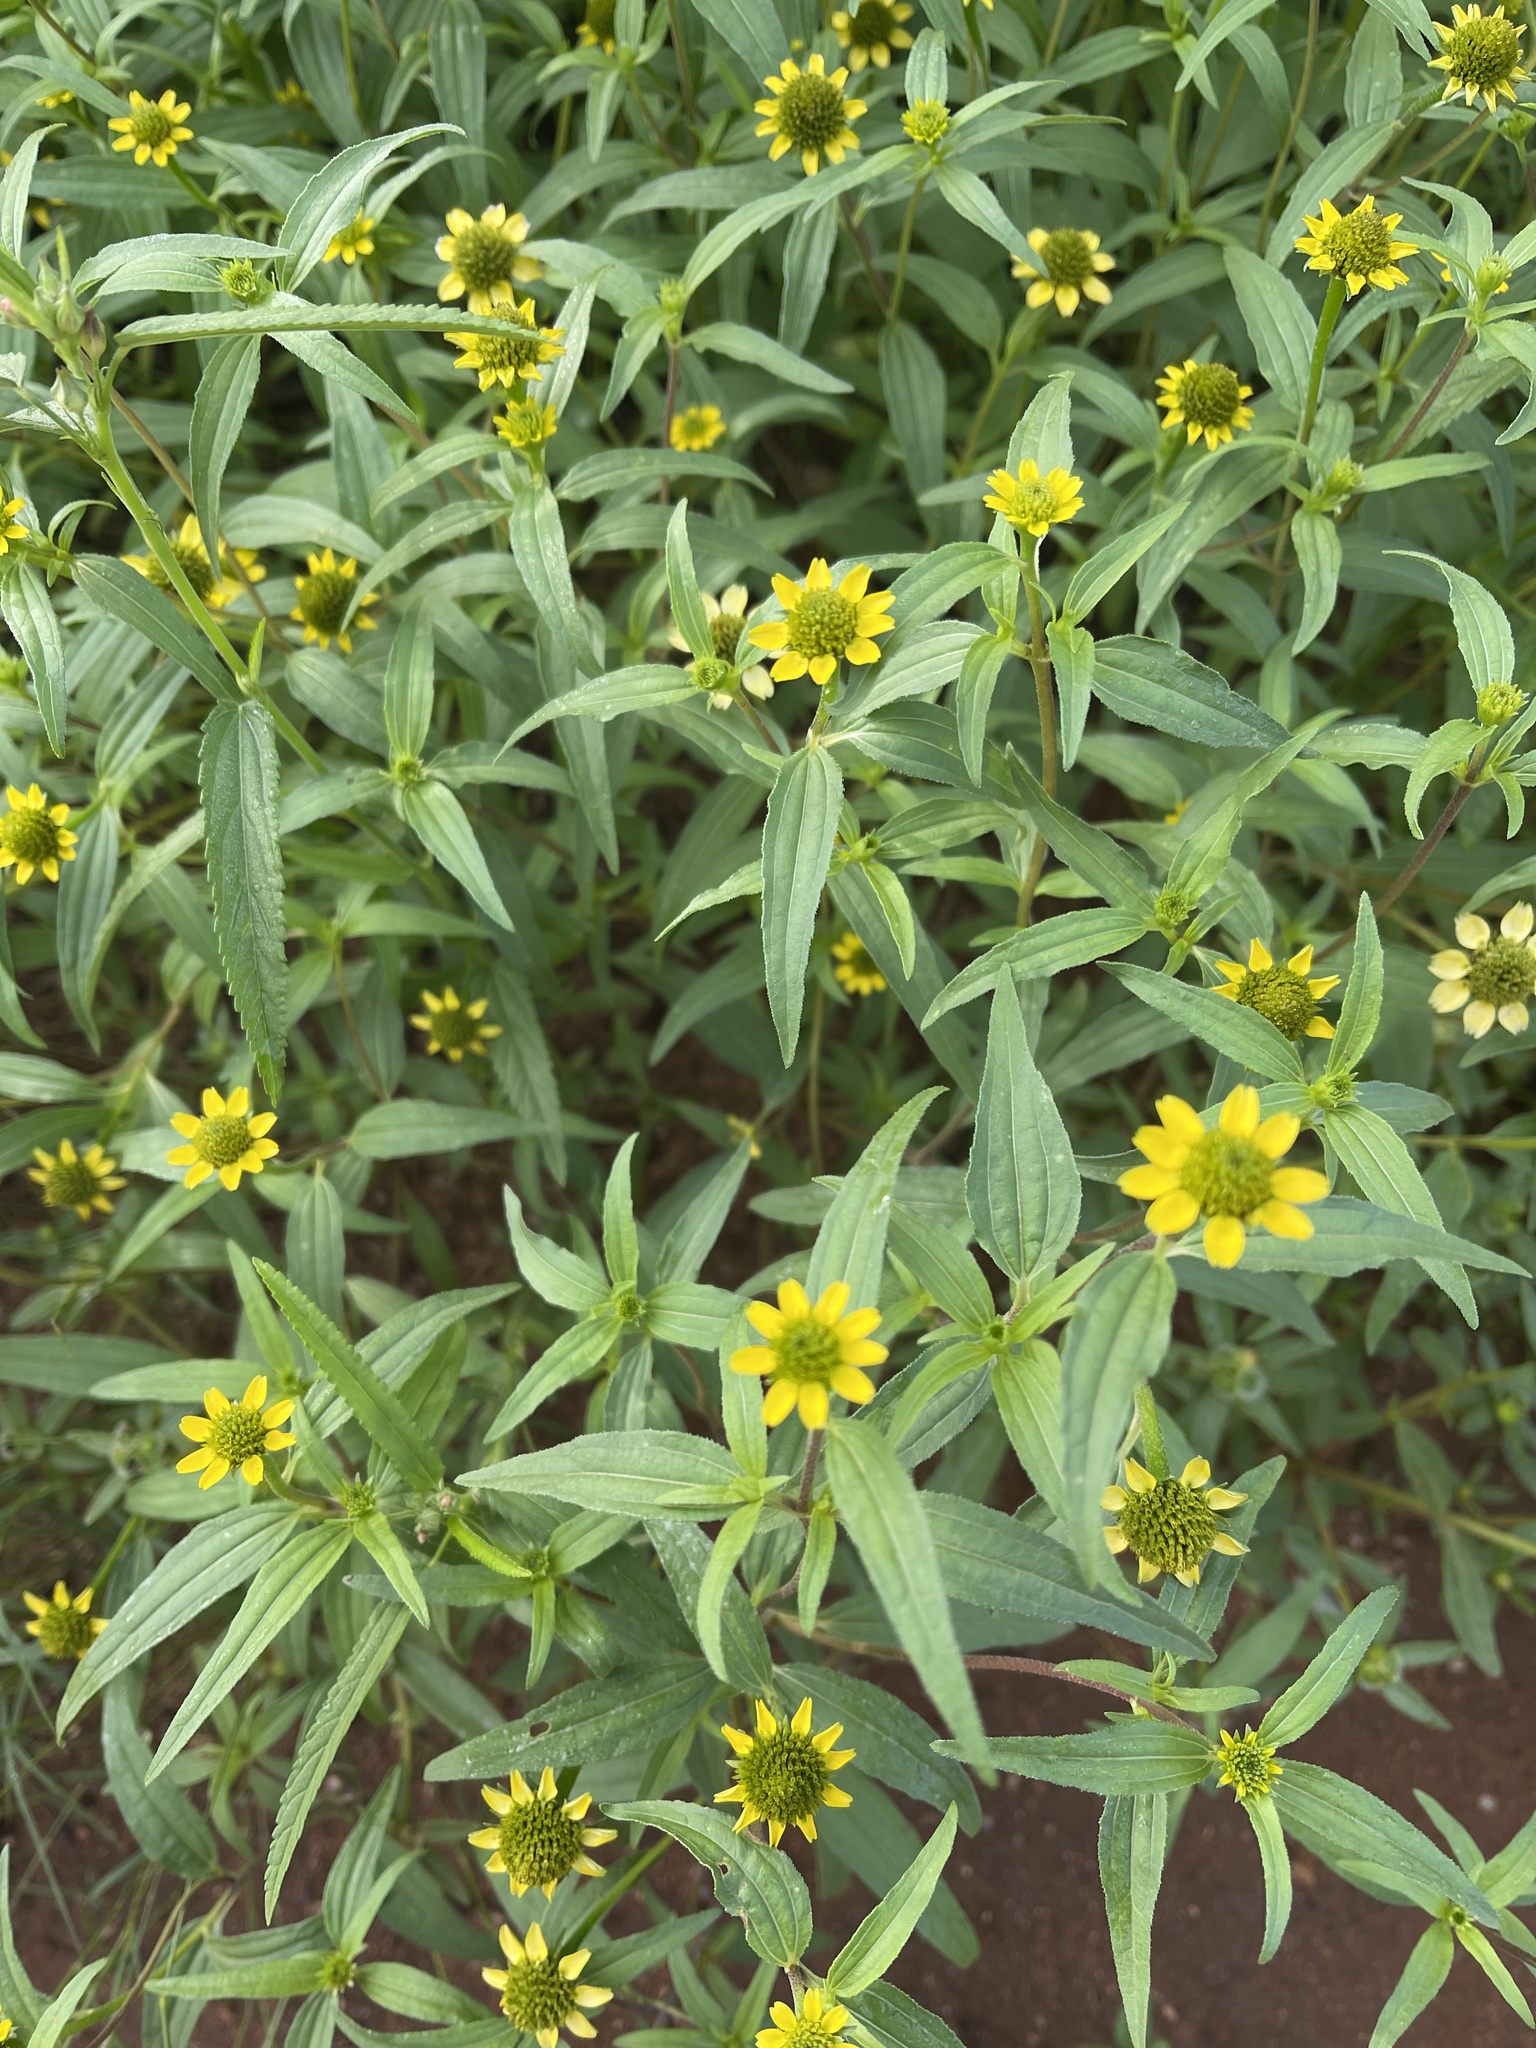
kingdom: Plantae
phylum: Tracheophyta
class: Magnoliopsida
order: Asterales
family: Asteraceae
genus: Sanvitalia
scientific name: Sanvitalia abertii
